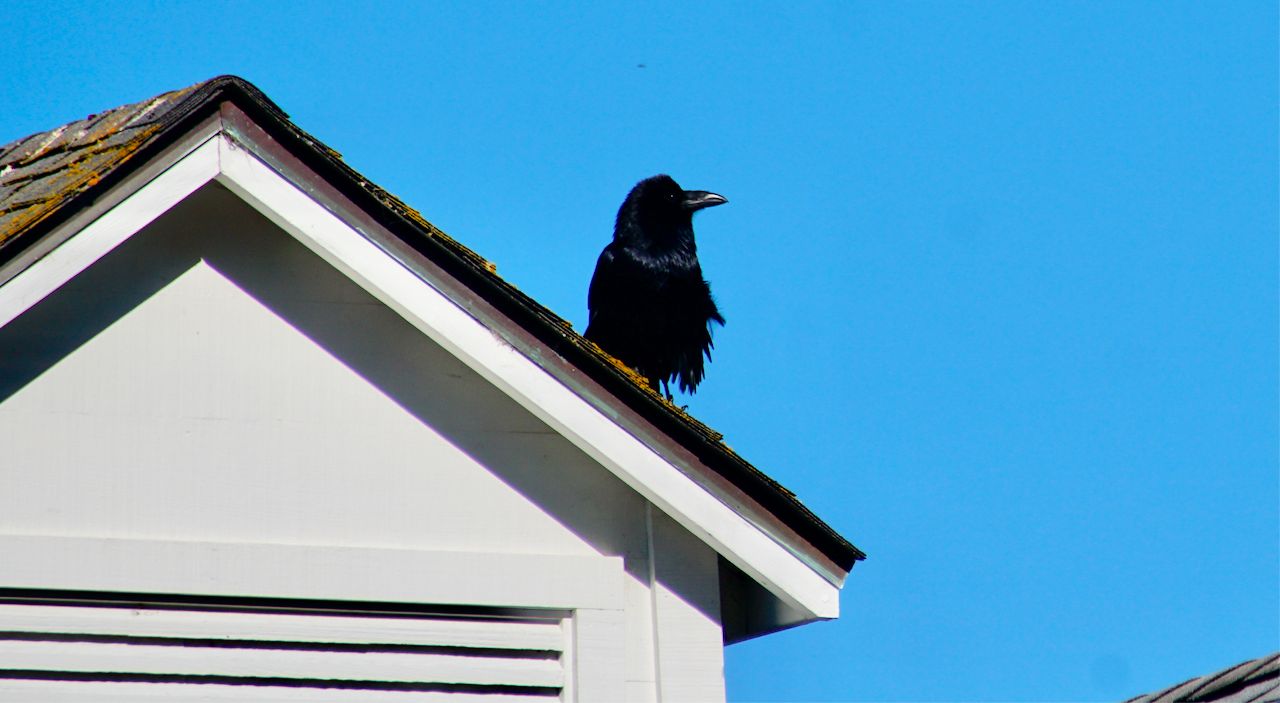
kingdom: Animalia
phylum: Chordata
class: Aves
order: Passeriformes
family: Corvidae
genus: Corvus
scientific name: Corvus corax
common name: Common raven
